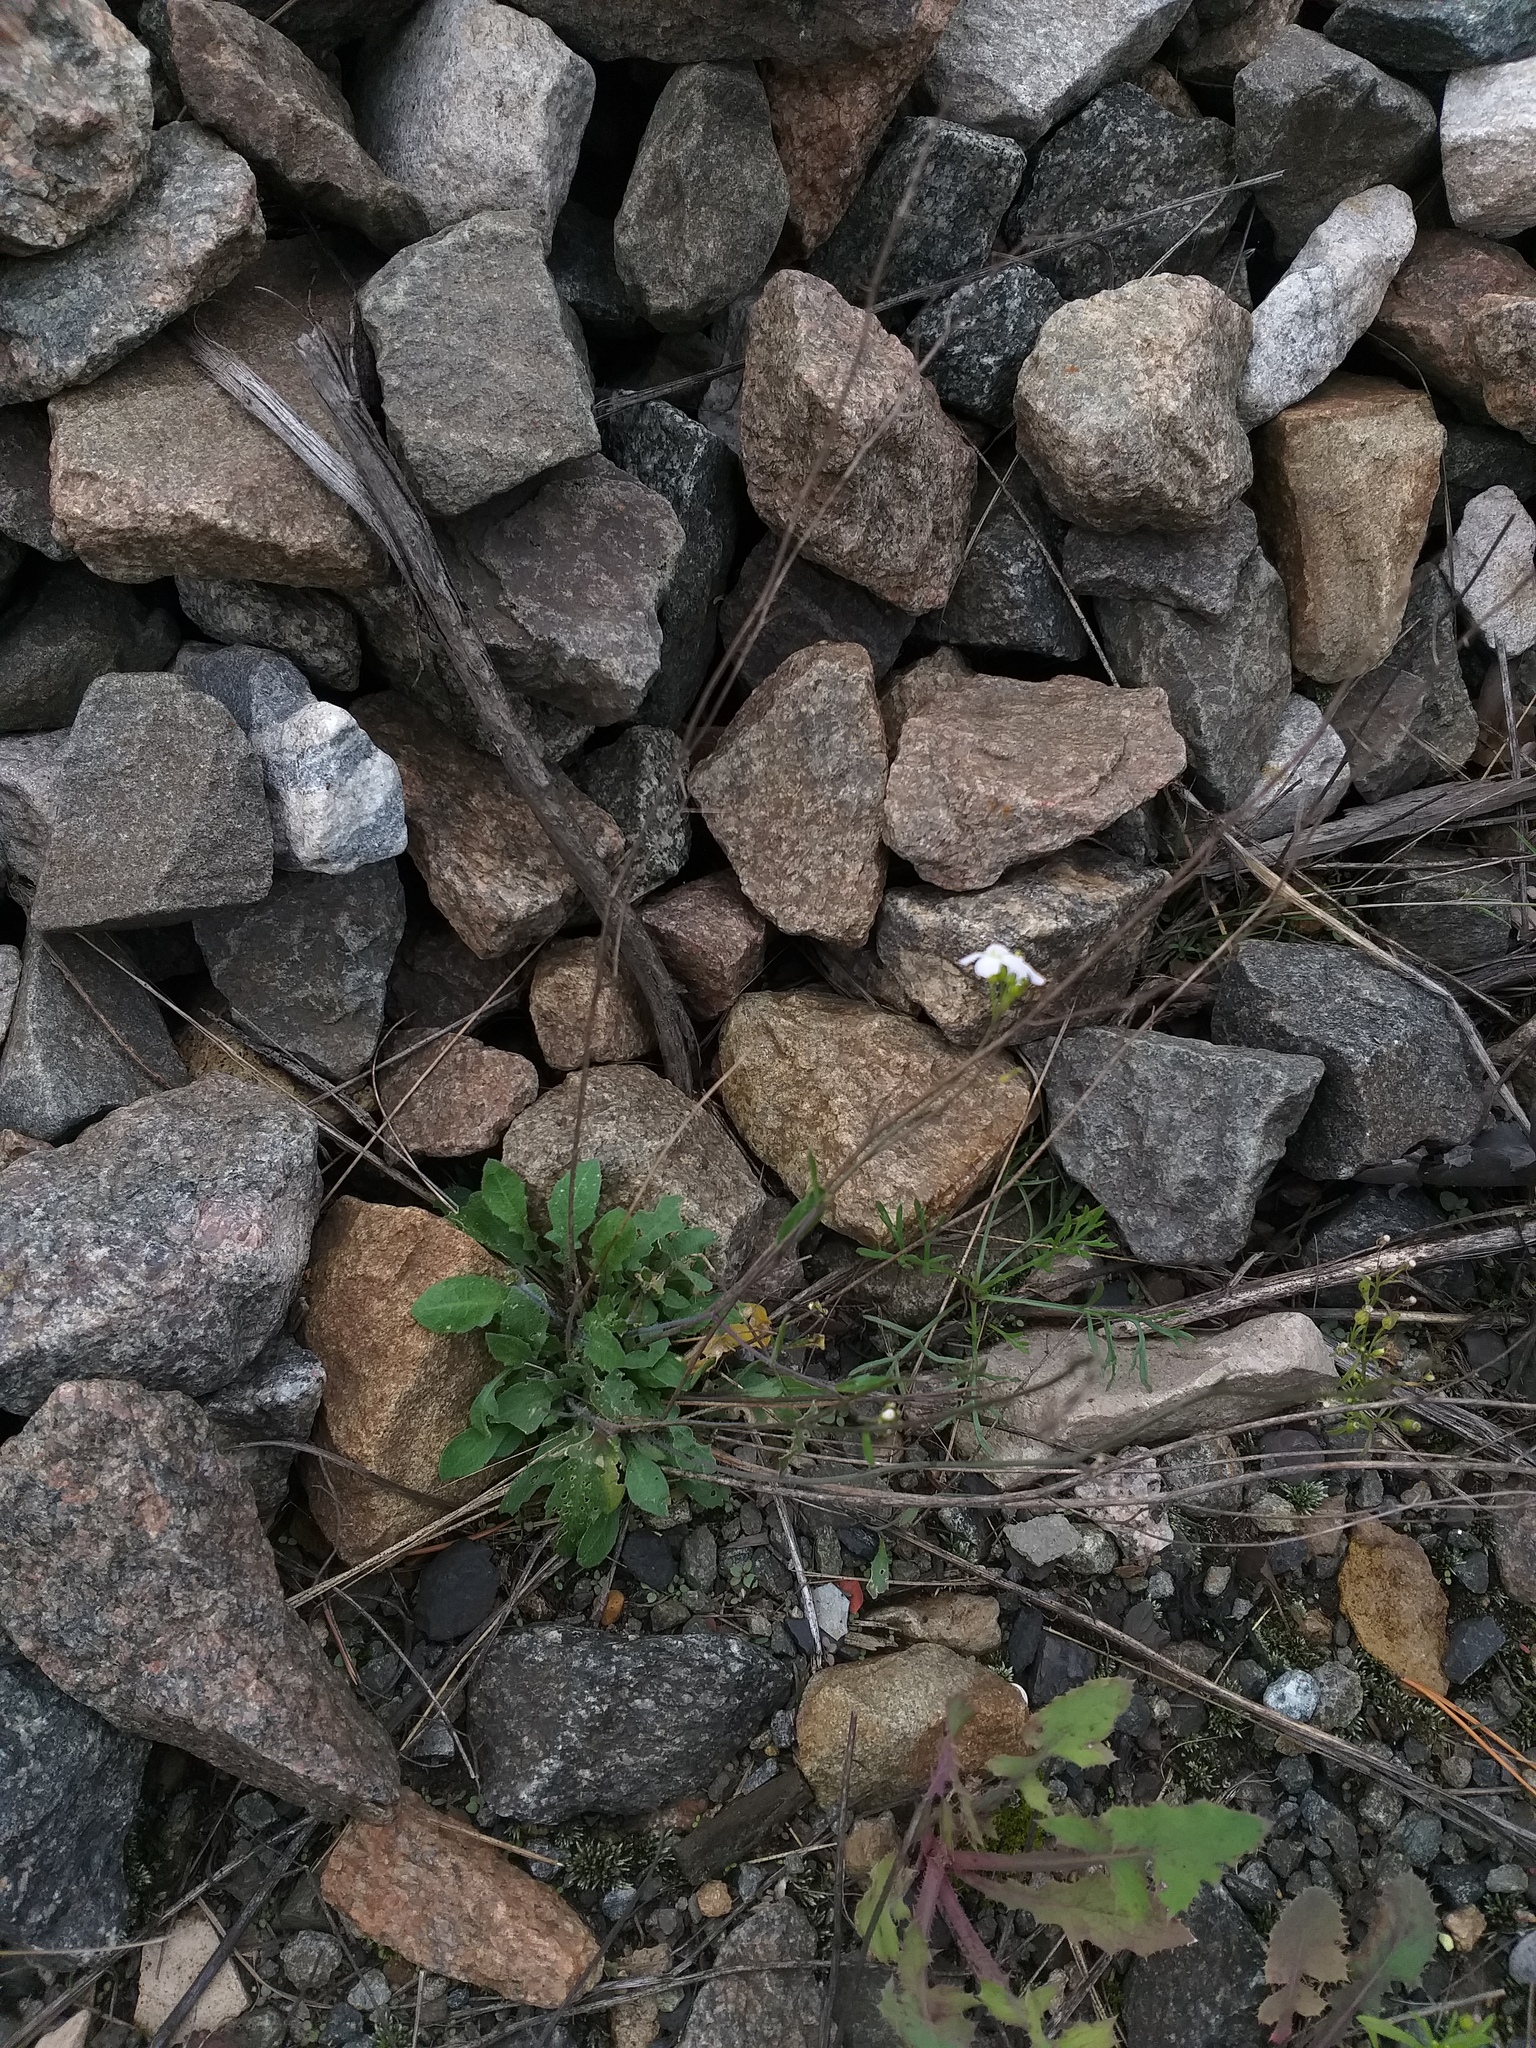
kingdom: Plantae
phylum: Tracheophyta
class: Magnoliopsida
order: Brassicales
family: Brassicaceae
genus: Arabidopsis
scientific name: Arabidopsis arenosa
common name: Sand rock-cress
